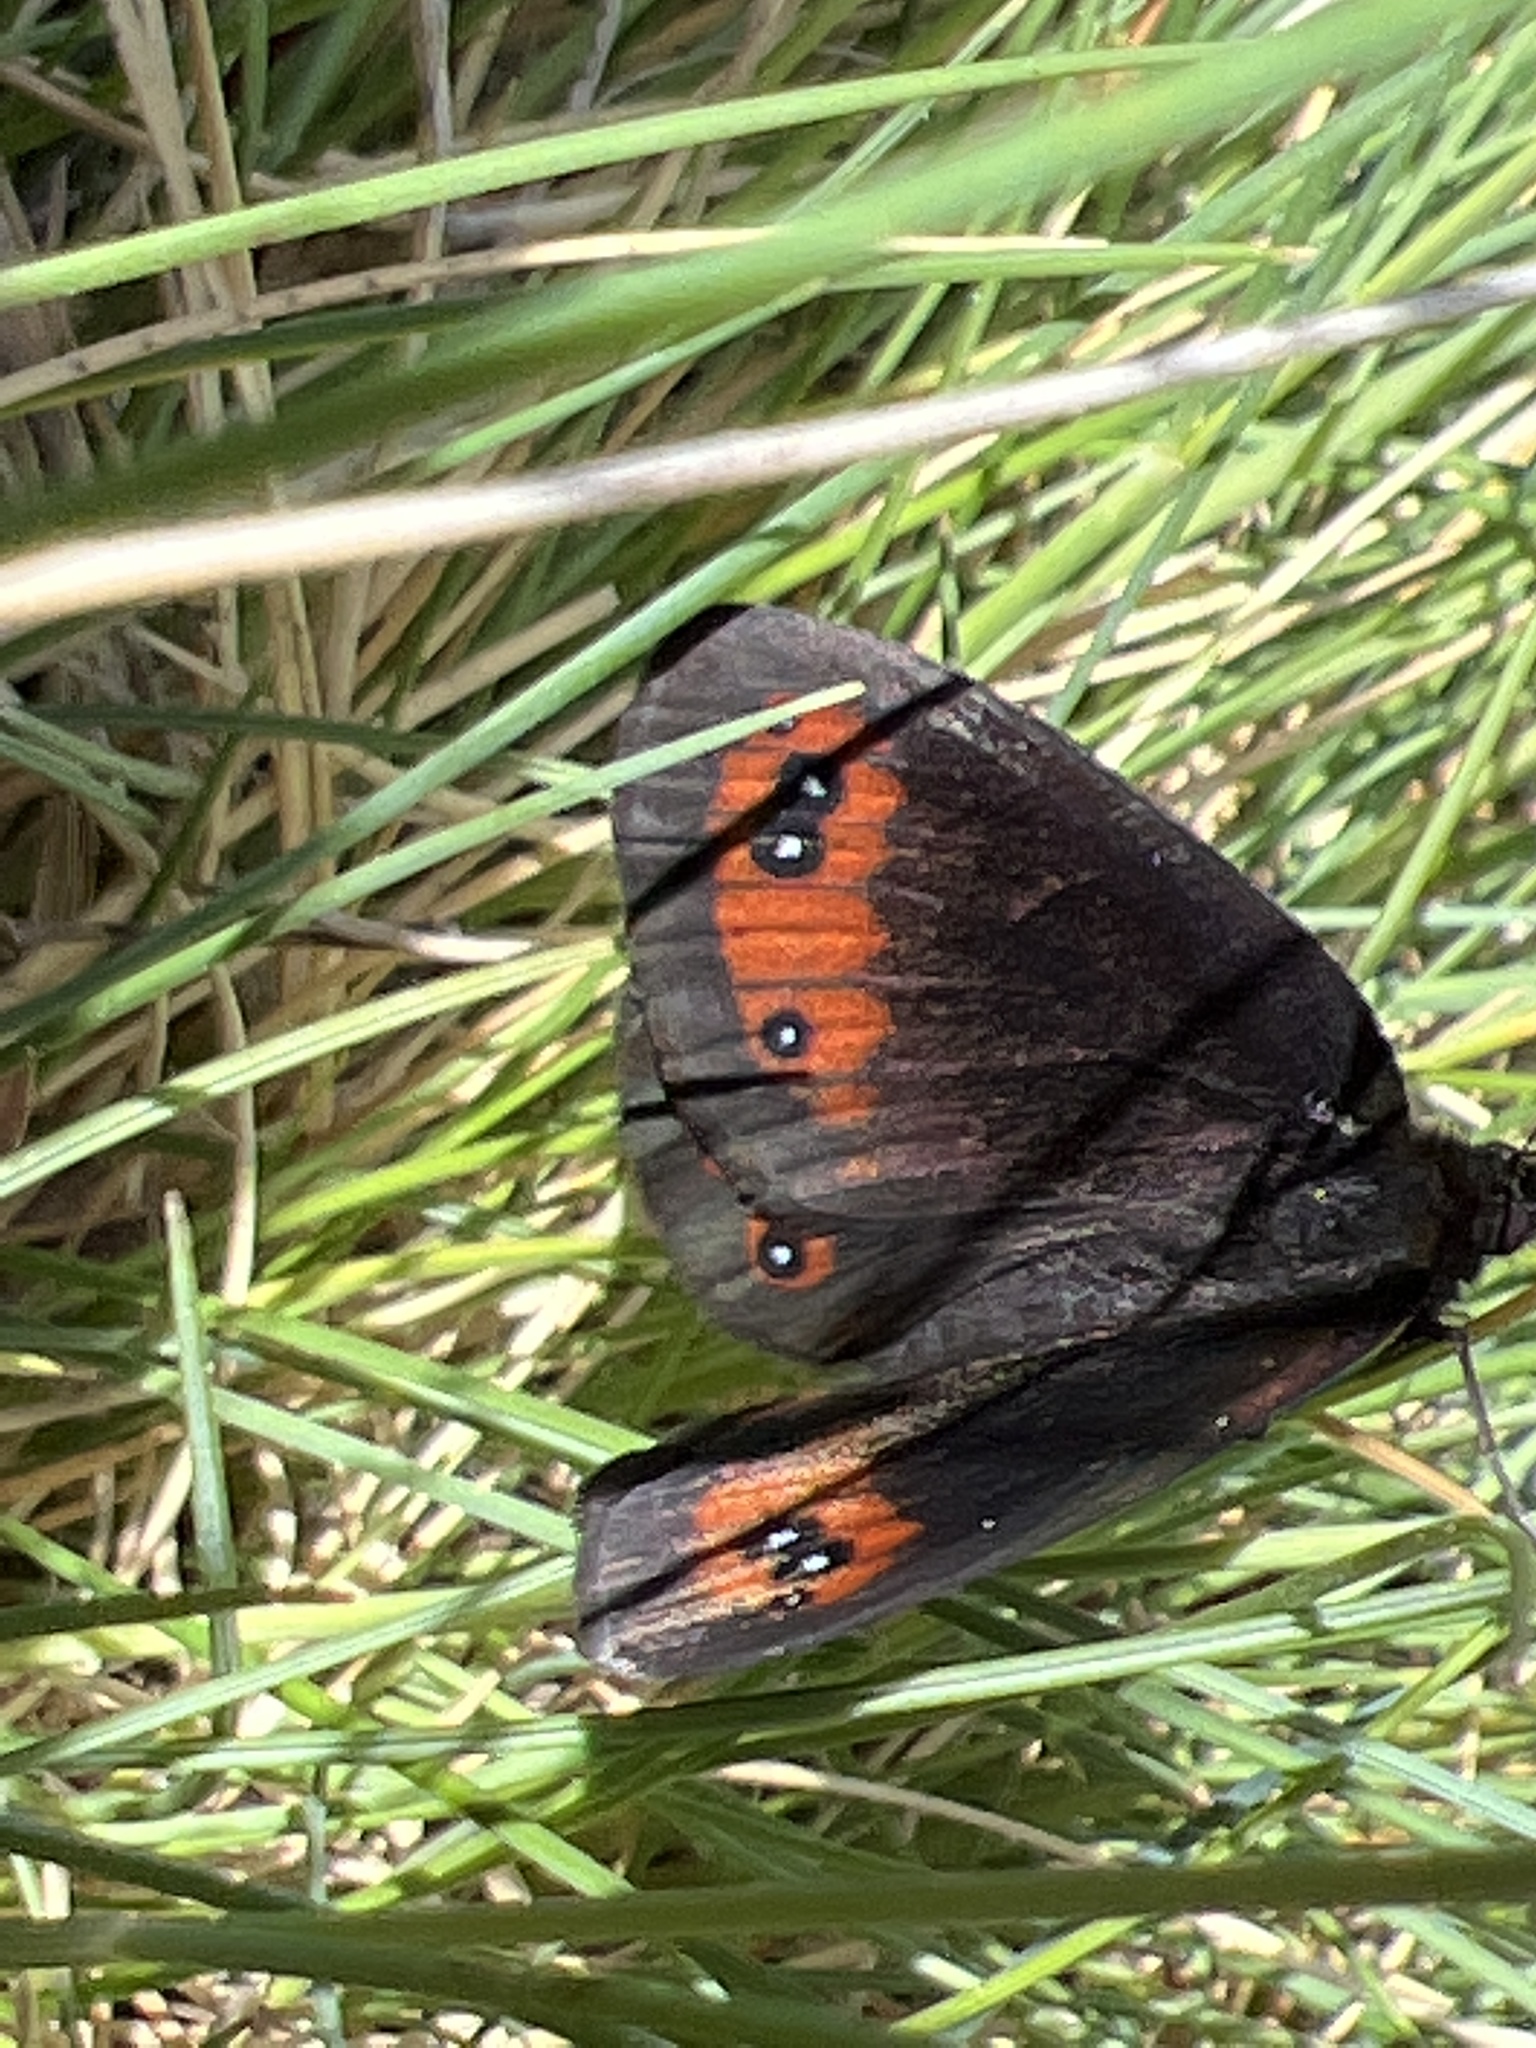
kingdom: Animalia
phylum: Arthropoda
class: Insecta
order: Lepidoptera
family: Nymphalidae
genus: Erebia
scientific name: Erebia meolans
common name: Piedmont ringlet
